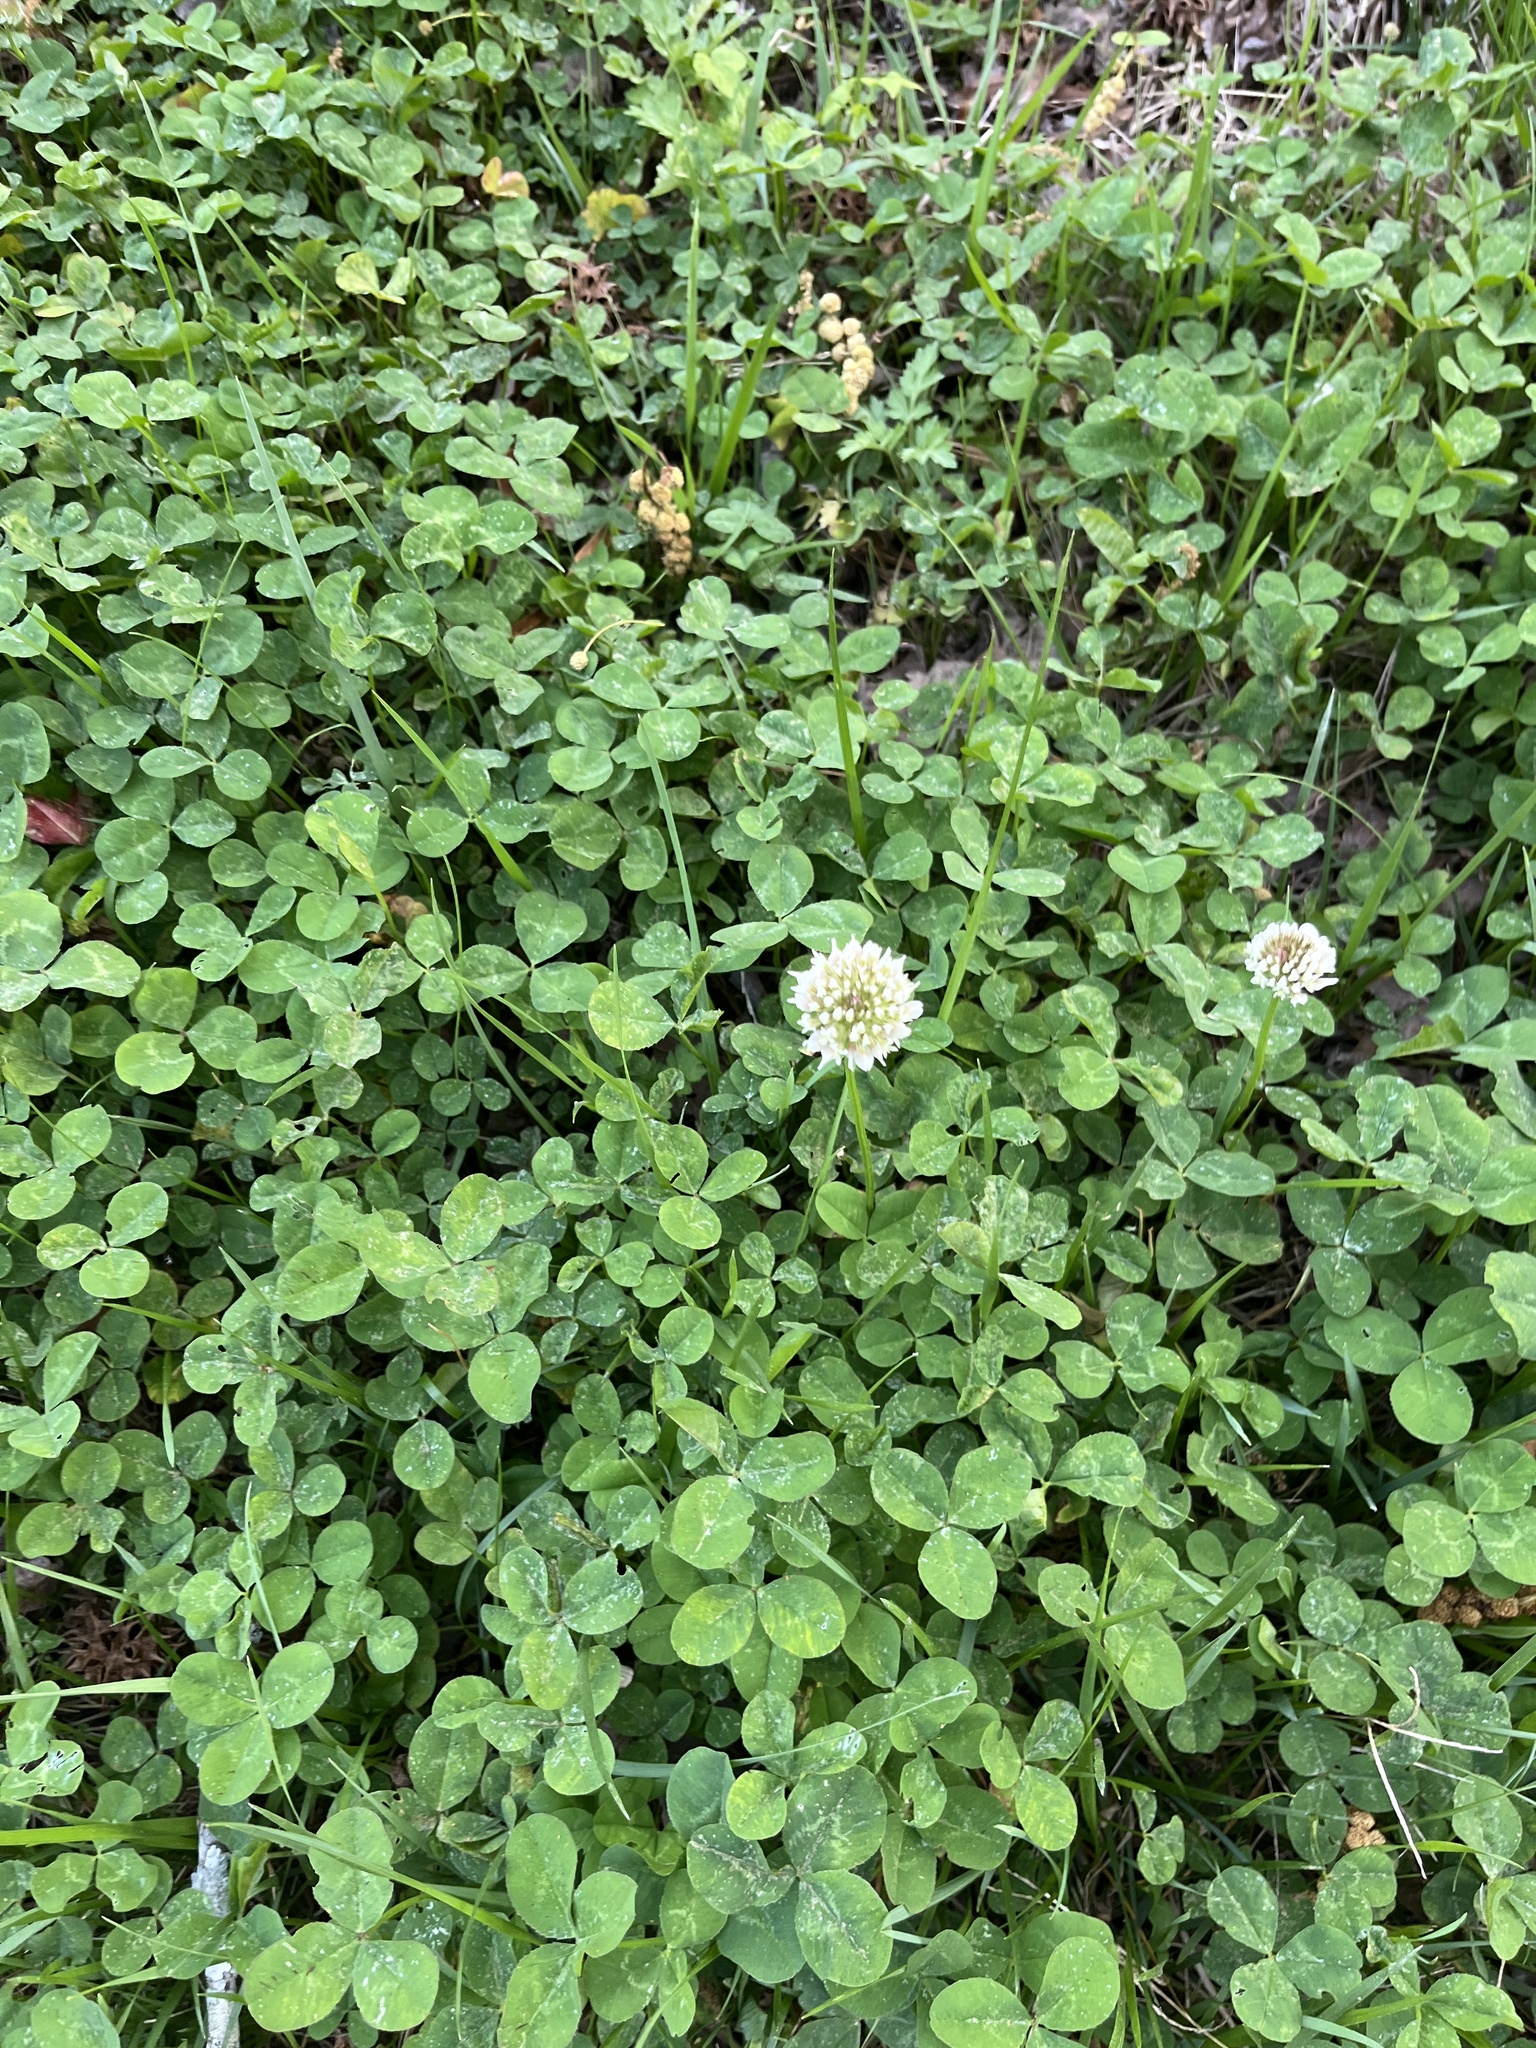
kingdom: Plantae
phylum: Tracheophyta
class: Magnoliopsida
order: Fabales
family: Fabaceae
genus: Trifolium
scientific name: Trifolium repens
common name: White clover
